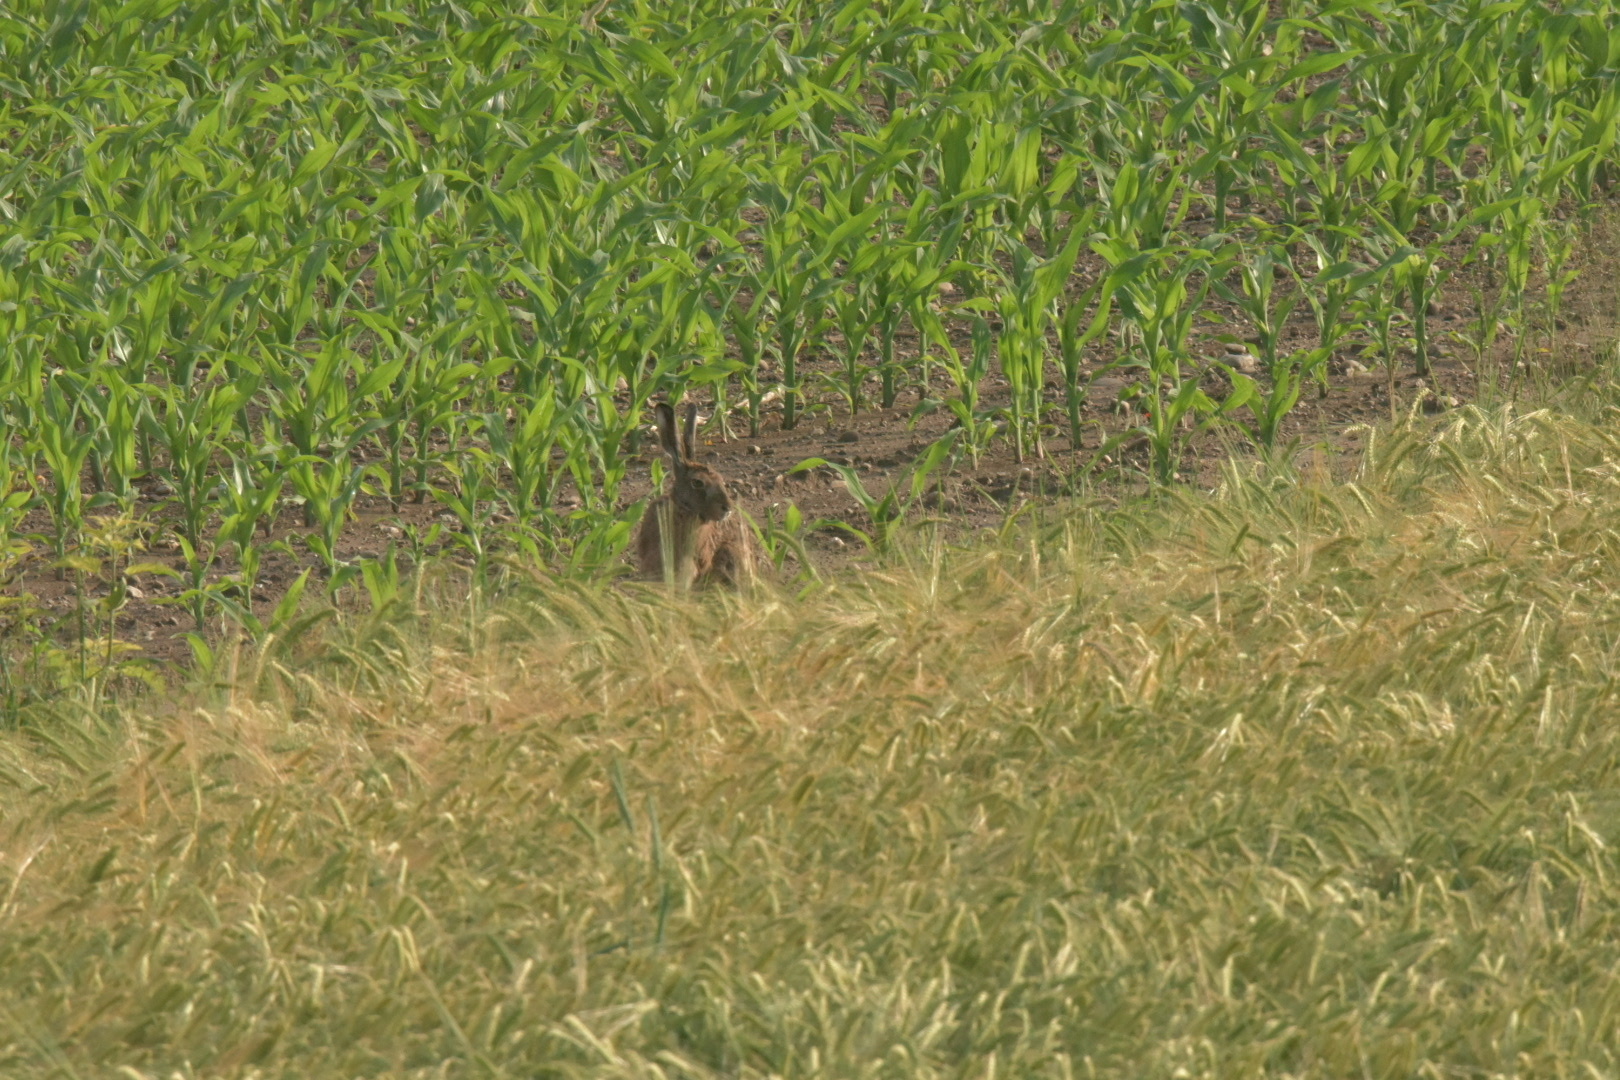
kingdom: Animalia
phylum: Chordata
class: Mammalia
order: Lagomorpha
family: Leporidae
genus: Lepus
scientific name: Lepus europaeus
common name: European hare
